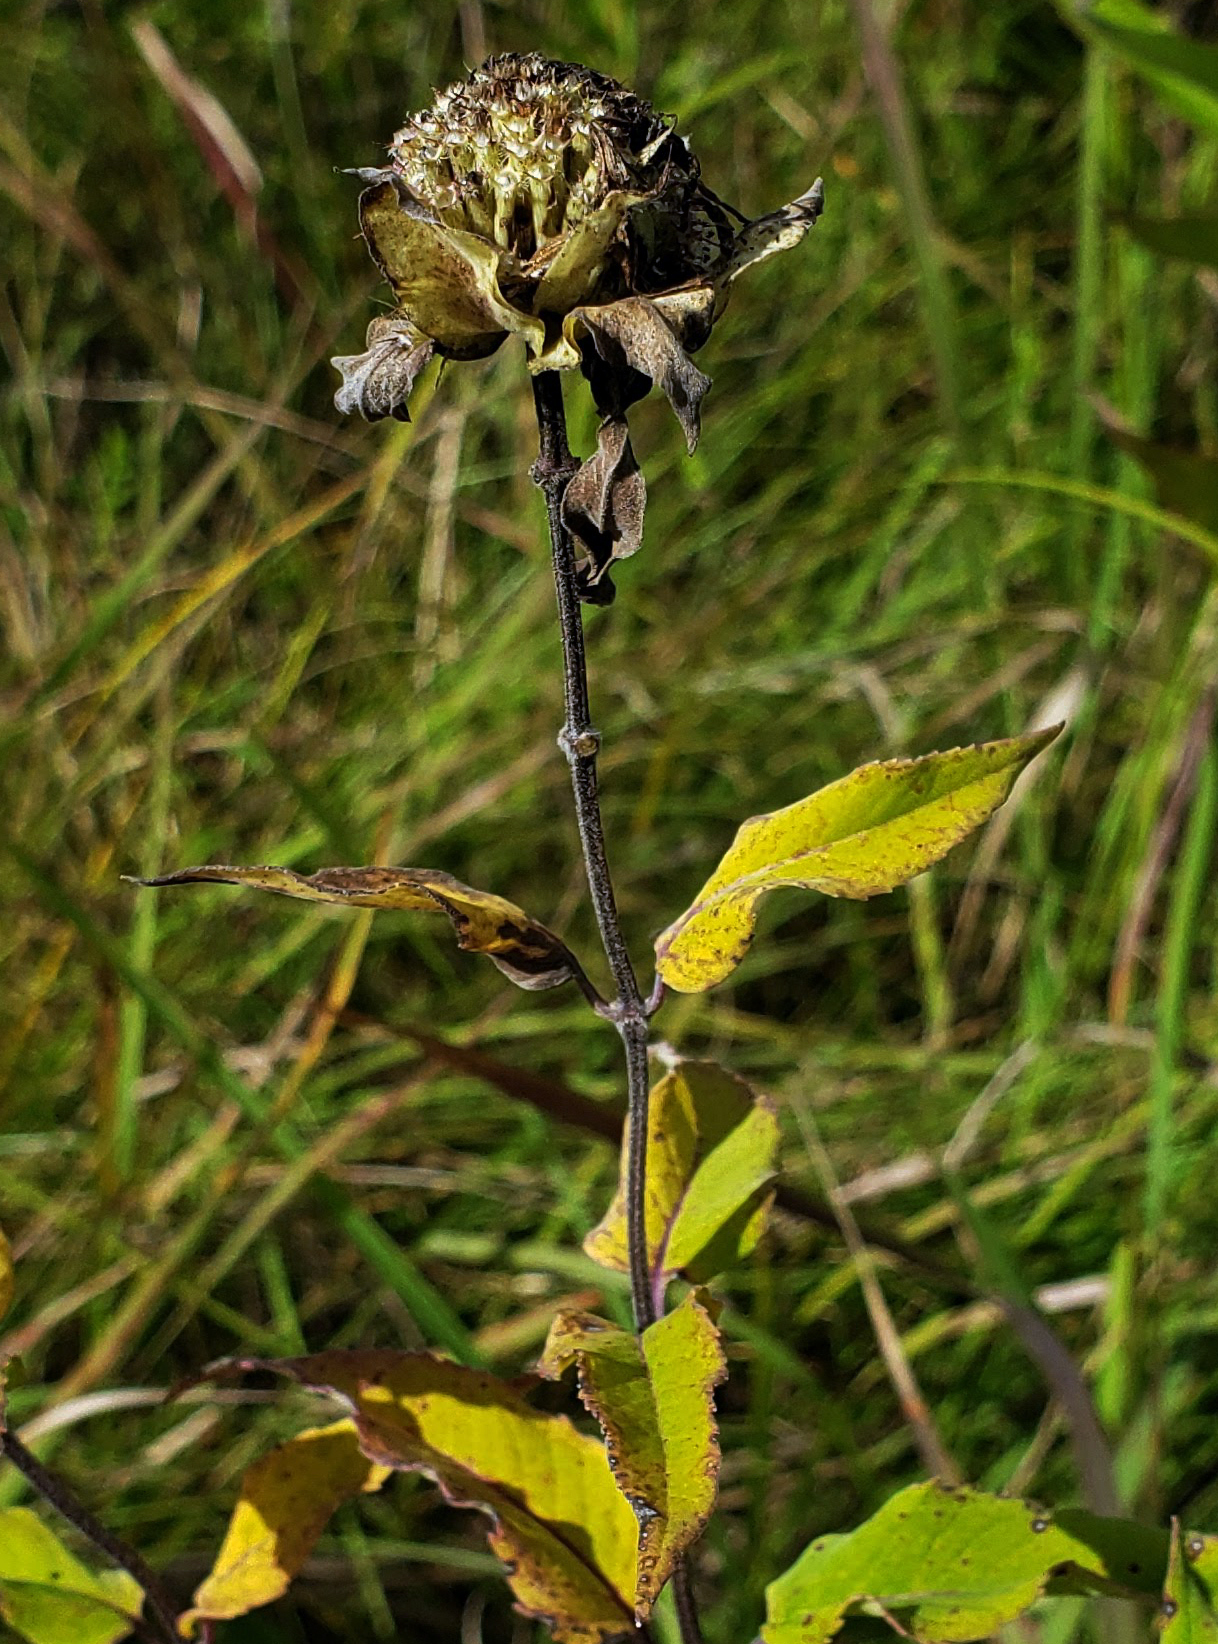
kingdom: Plantae
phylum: Tracheophyta
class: Magnoliopsida
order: Lamiales
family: Lamiaceae
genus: Monarda
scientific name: Monarda fistulosa
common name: Purple beebalm
